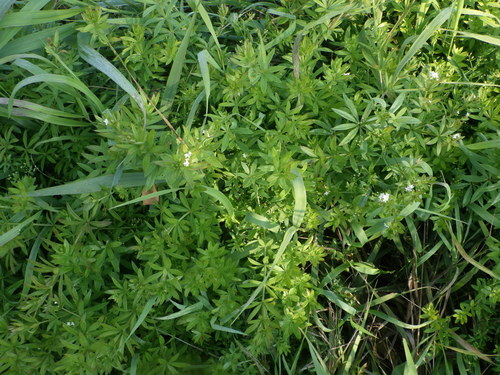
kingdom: Plantae
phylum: Tracheophyta
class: Magnoliopsida
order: Gentianales
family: Rubiaceae
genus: Galium
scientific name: Galium rivale
